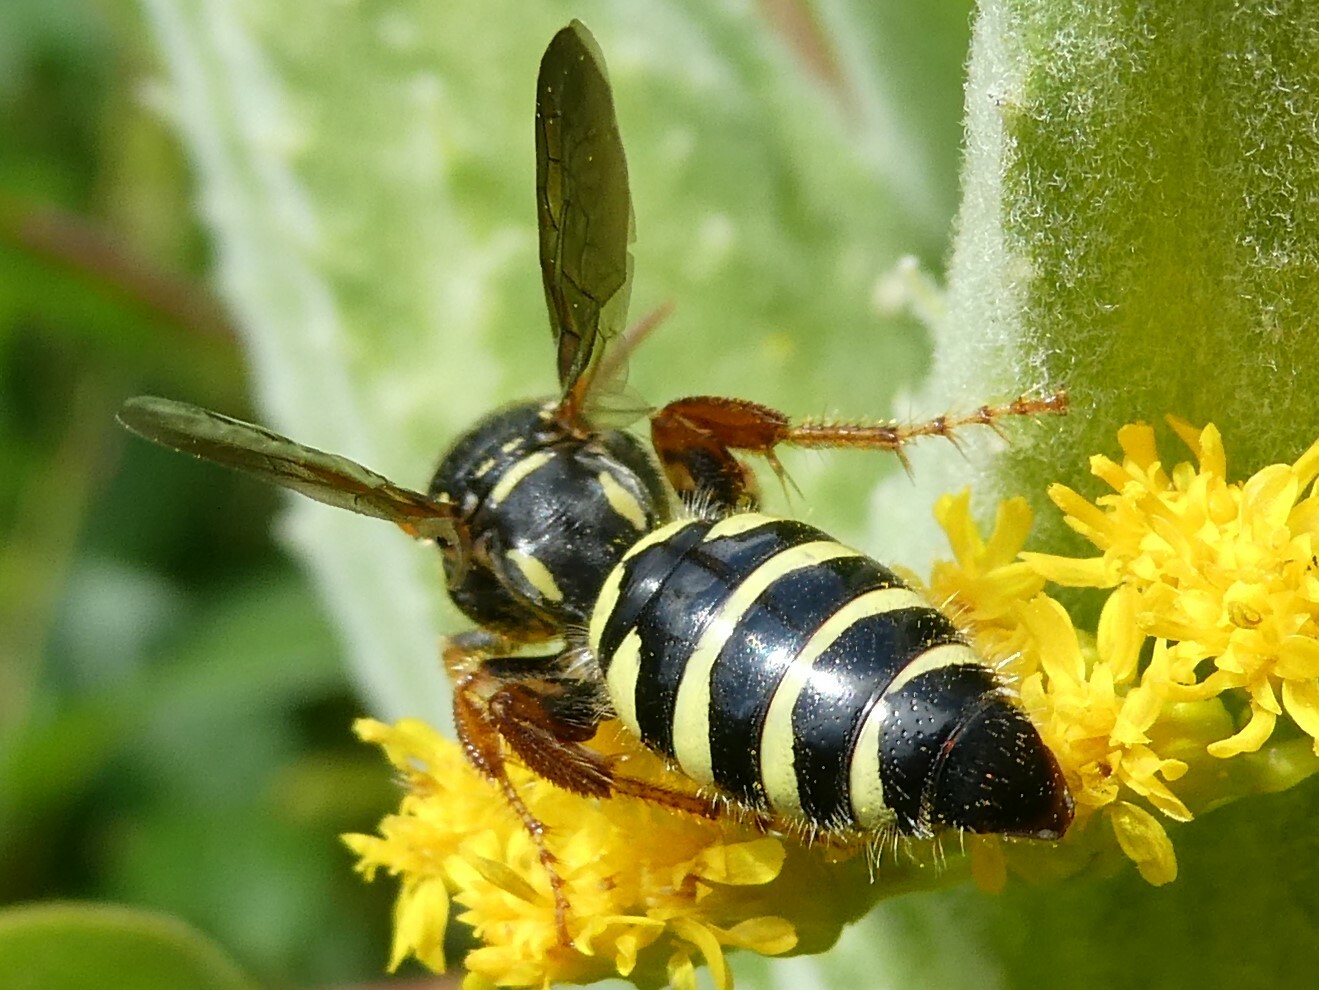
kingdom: Animalia
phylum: Arthropoda
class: Insecta
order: Hymenoptera
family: Tiphiidae
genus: Myzinum
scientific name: Myzinum quinquecinctum
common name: Five-banded thynnid wasp
